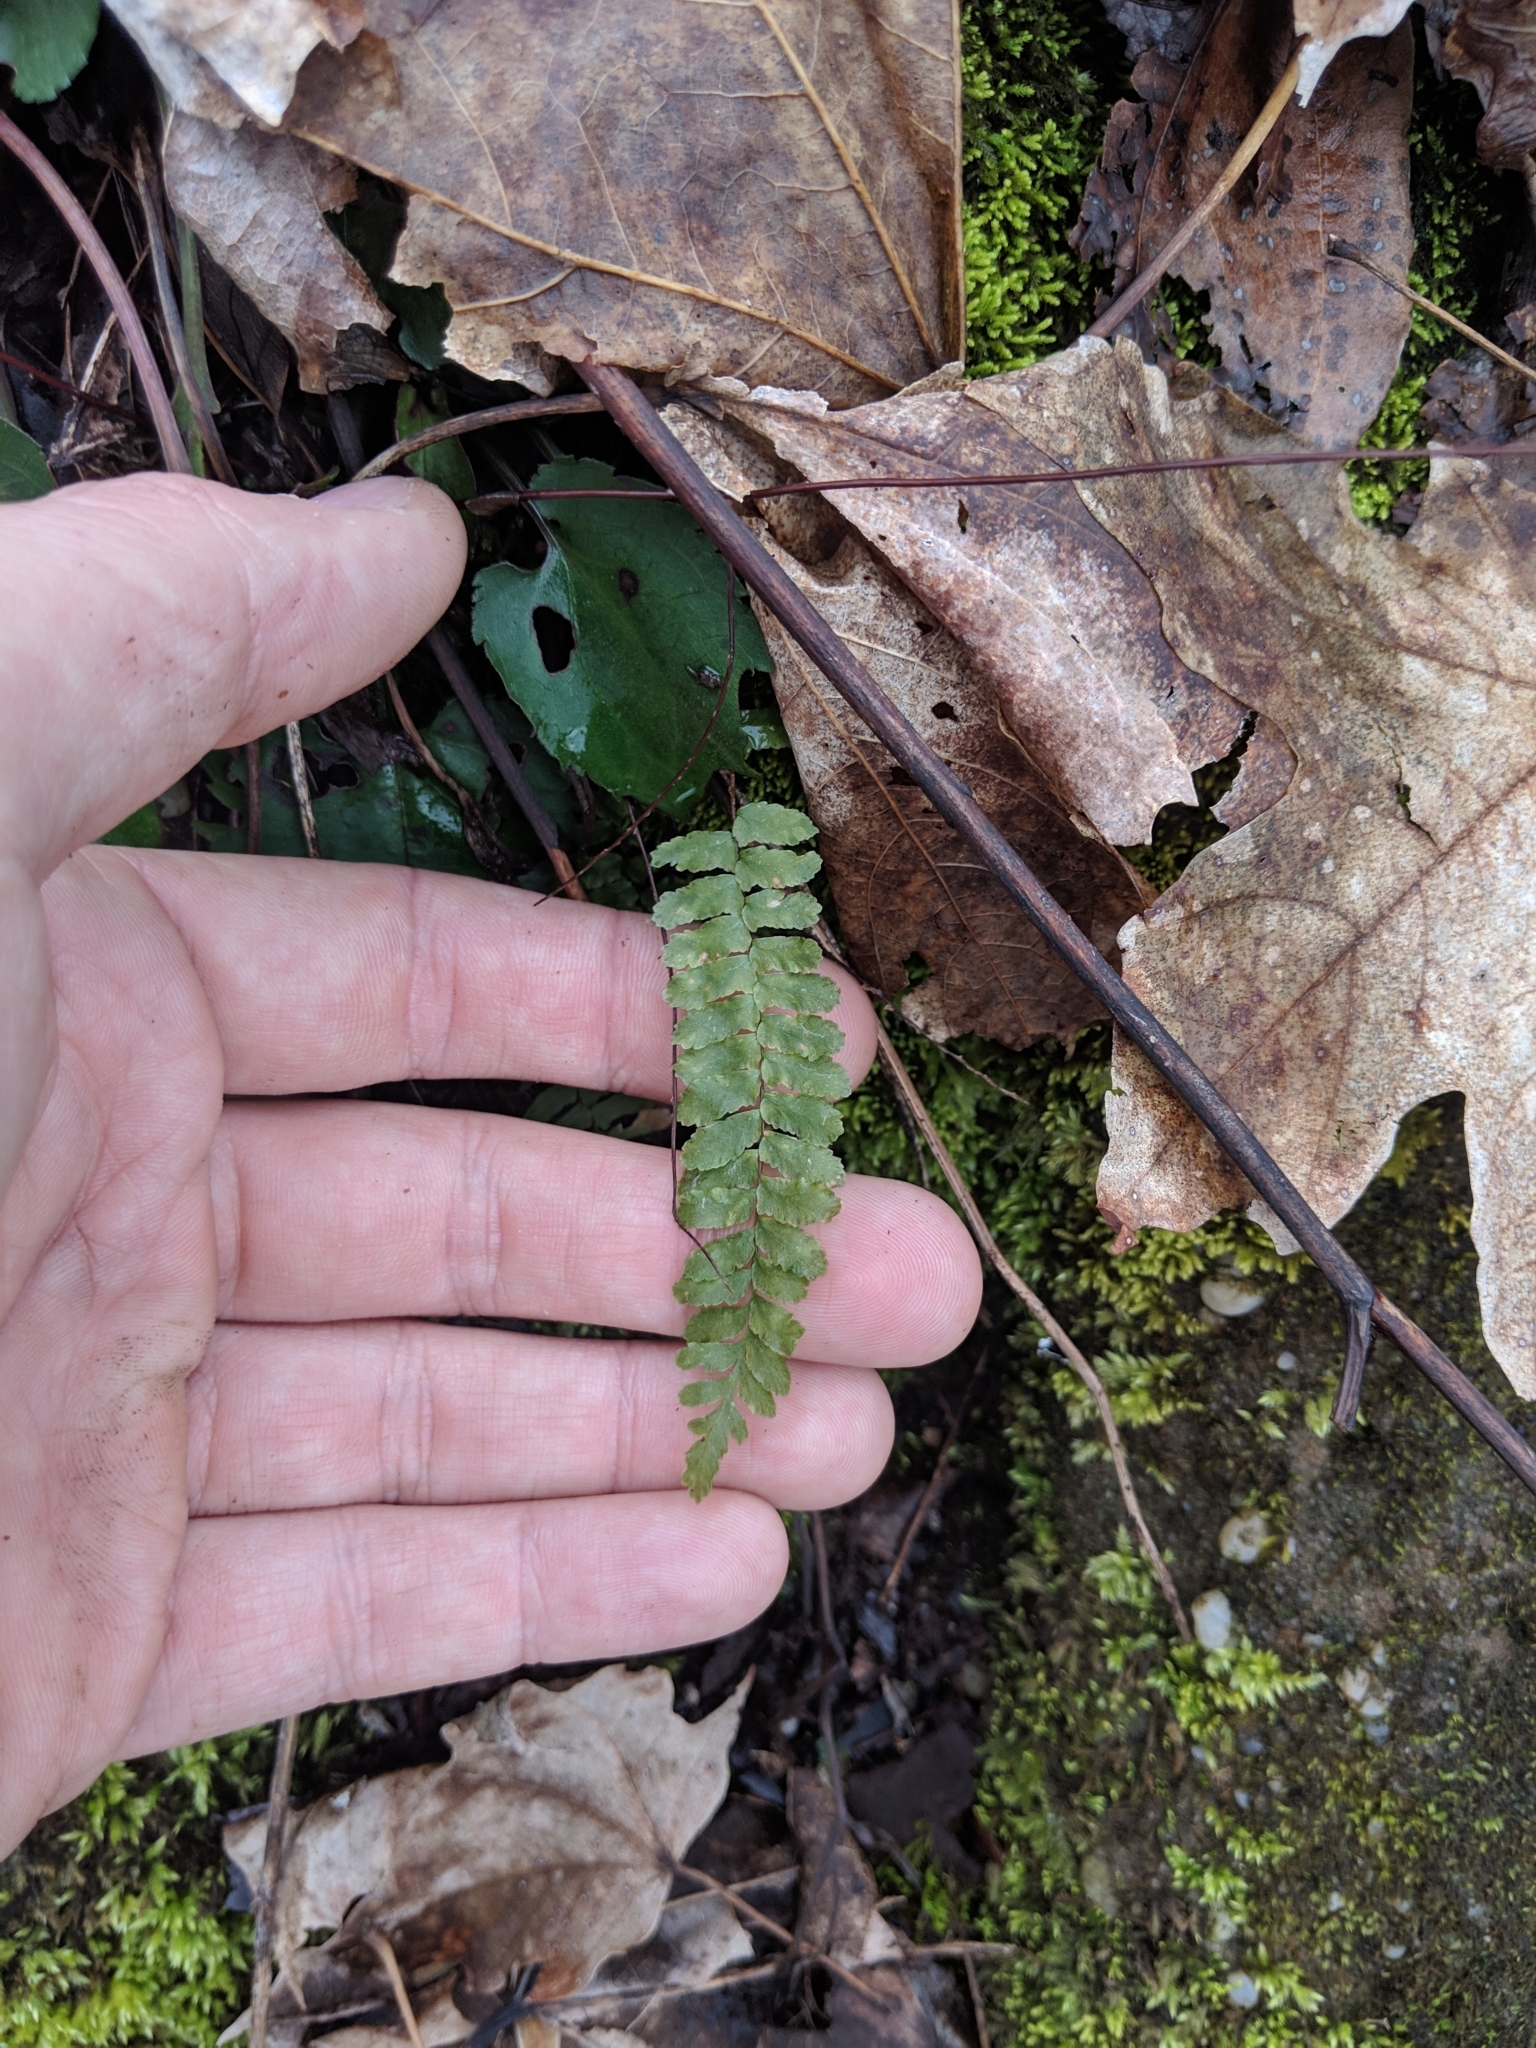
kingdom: Plantae
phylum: Tracheophyta
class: Polypodiopsida
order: Polypodiales
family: Aspleniaceae
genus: Asplenium
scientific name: Asplenium platyneuron
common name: Ebony spleenwort
